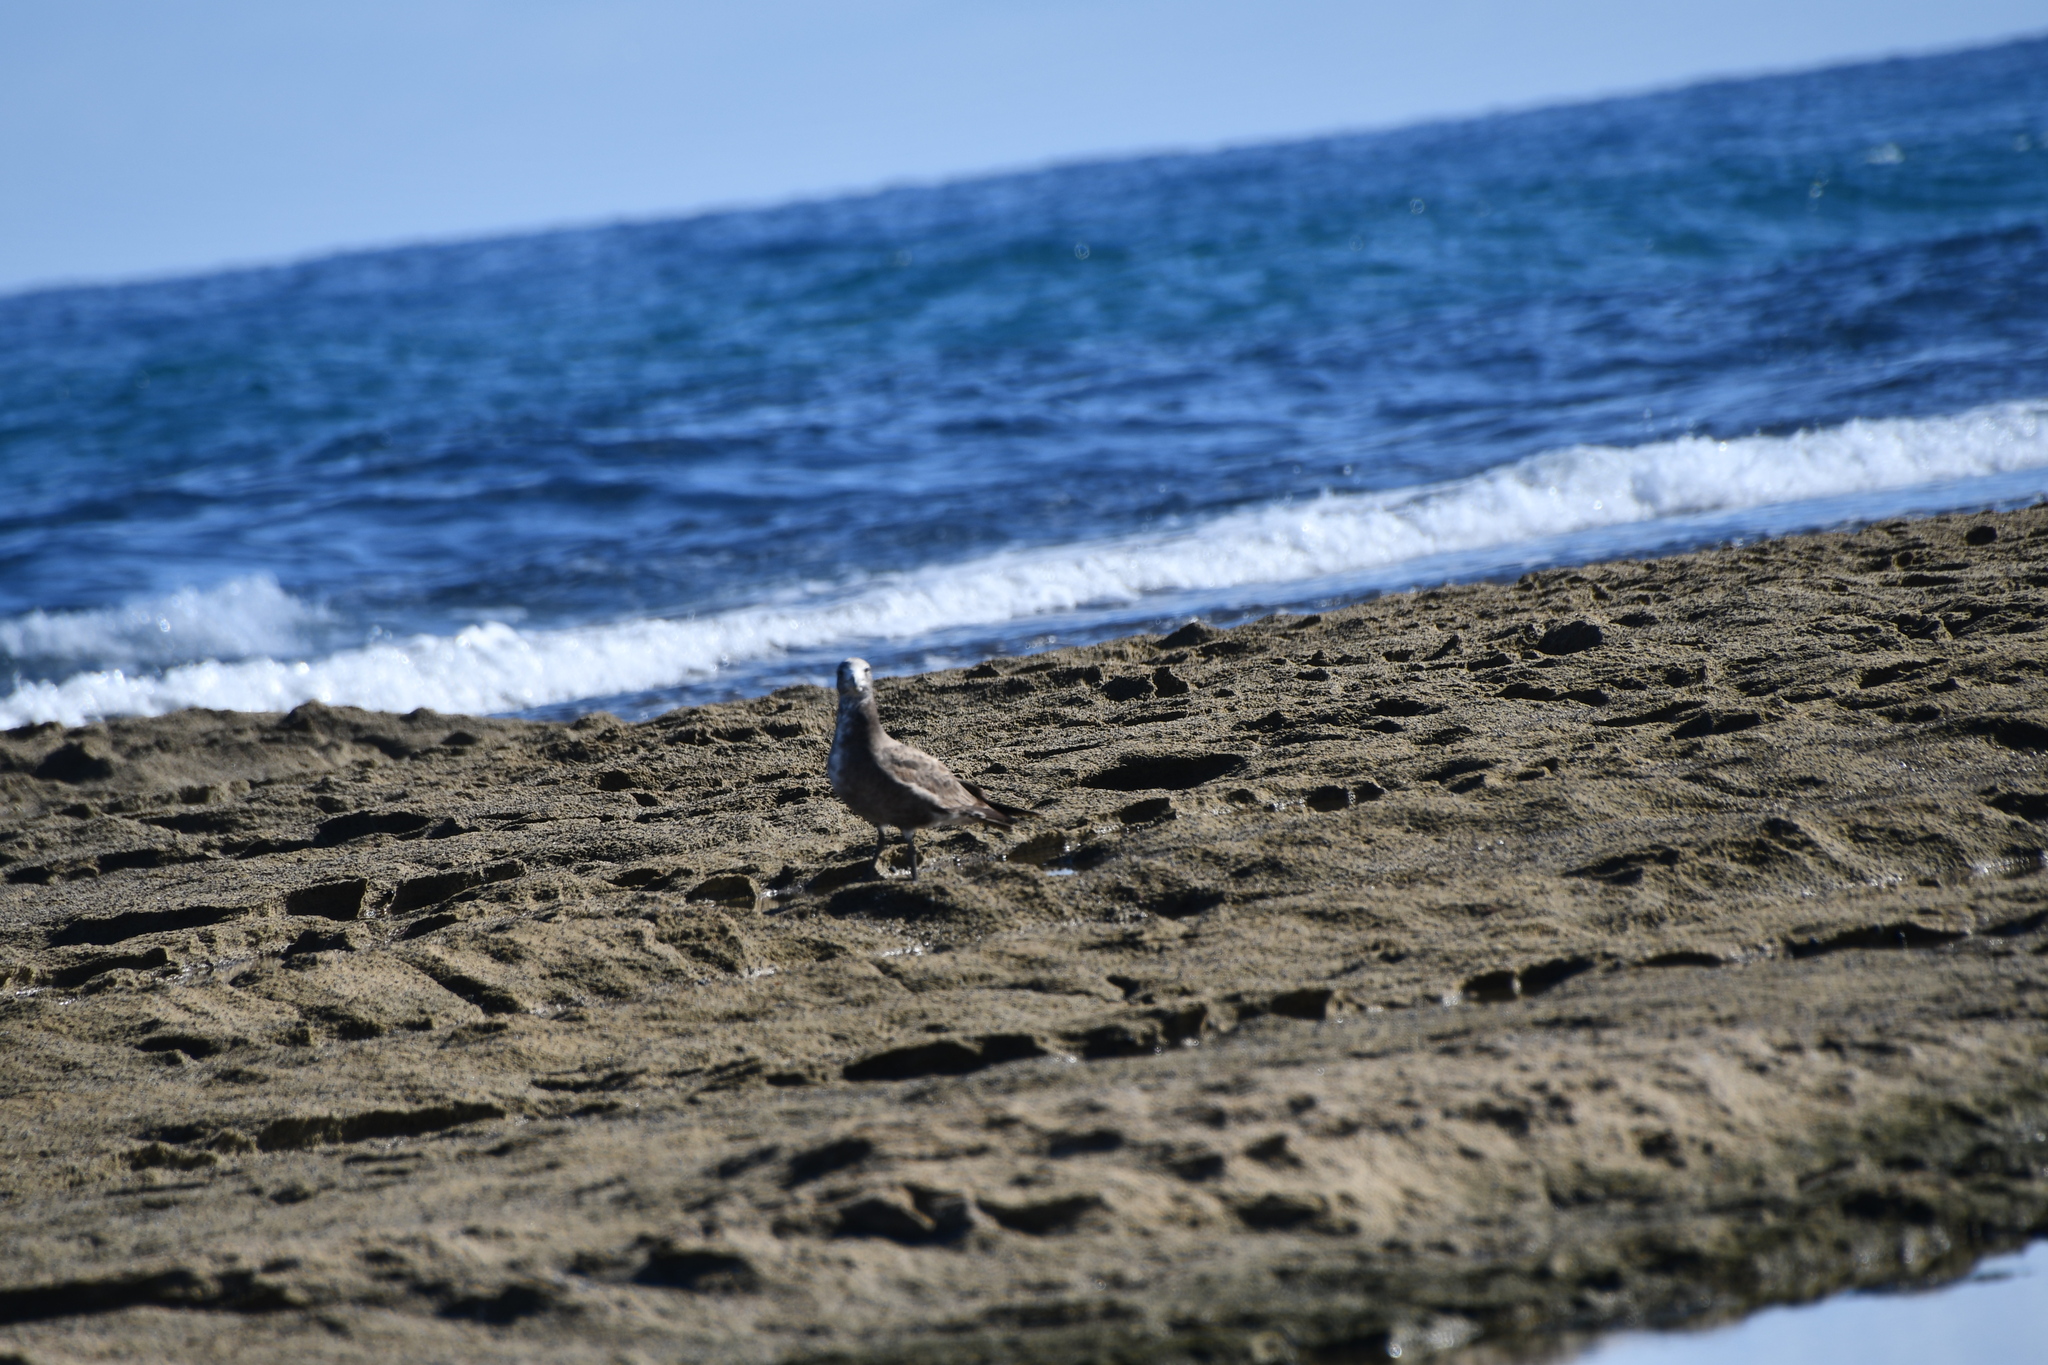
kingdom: Animalia
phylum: Chordata
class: Aves
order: Charadriiformes
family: Laridae
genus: Larus
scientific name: Larus pacificus
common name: Pacific gull
